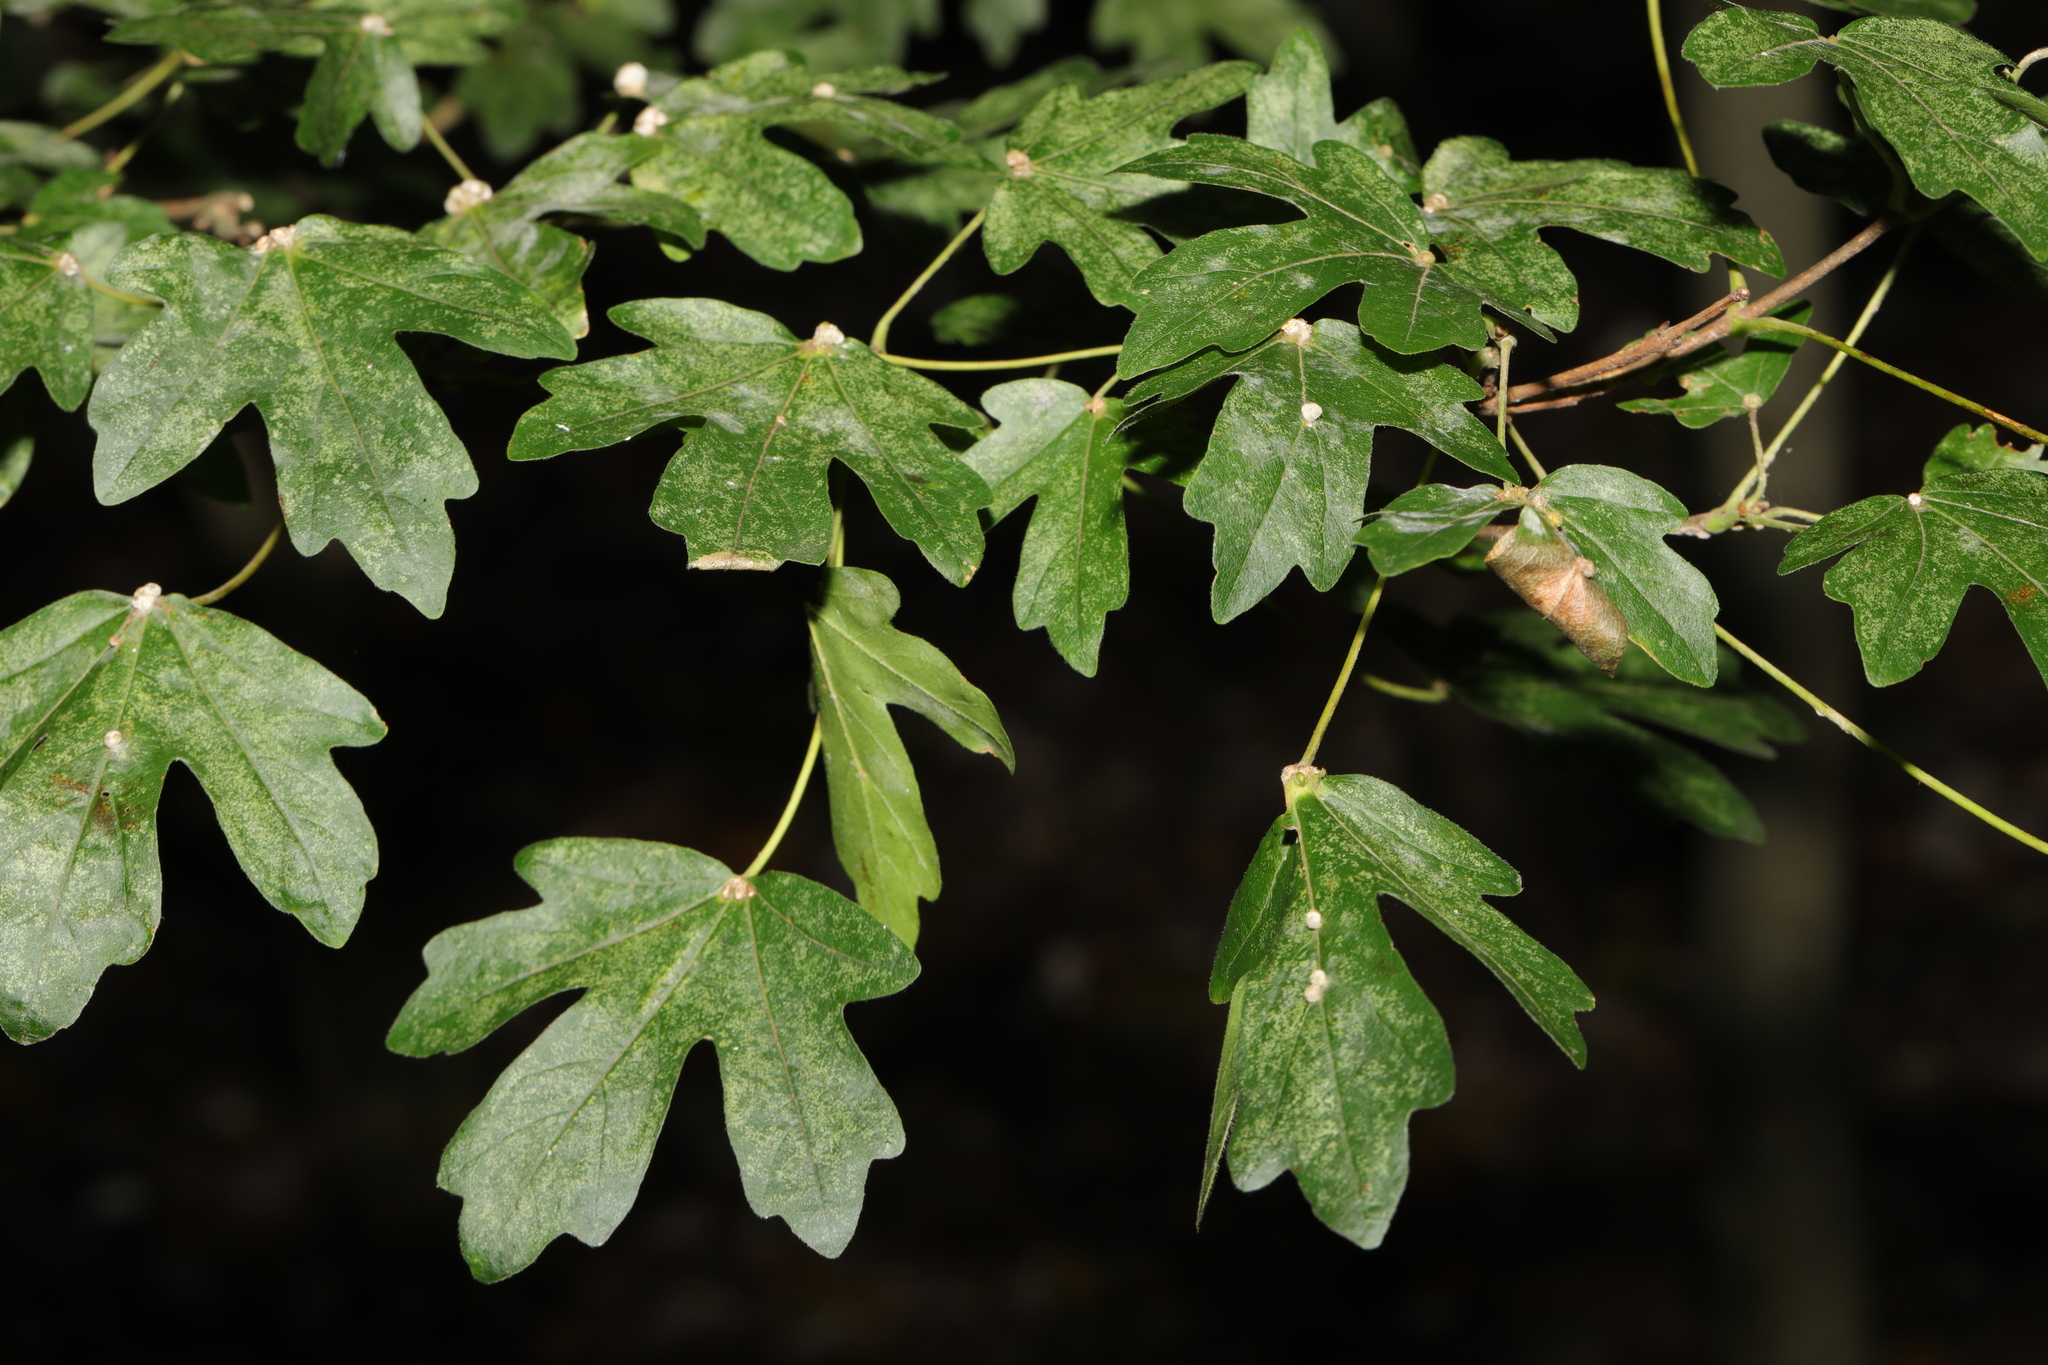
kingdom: Plantae
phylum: Tracheophyta
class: Magnoliopsida
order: Sapindales
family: Sapindaceae
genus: Acer
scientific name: Acer campestre
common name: Field maple
